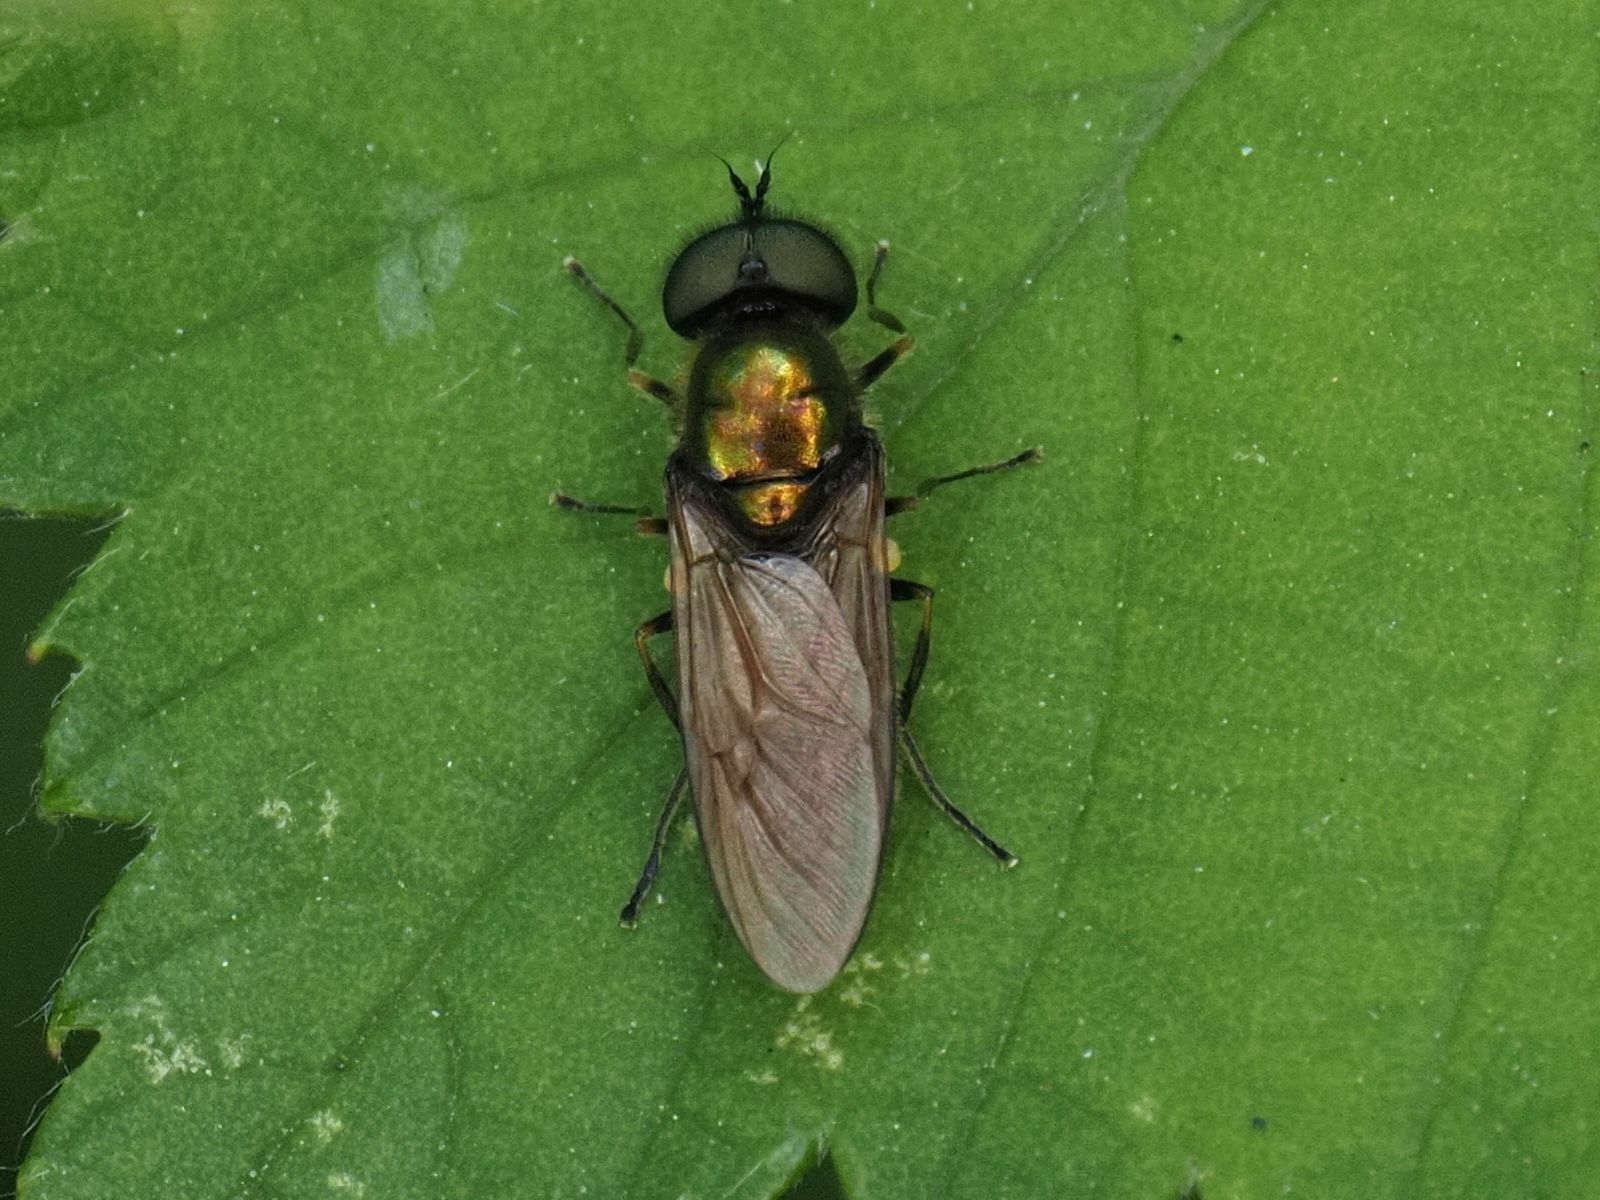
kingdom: Animalia
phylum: Arthropoda
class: Insecta
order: Diptera
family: Stratiomyidae
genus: Chloromyia
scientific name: Chloromyia formosa
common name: Soldier fly
